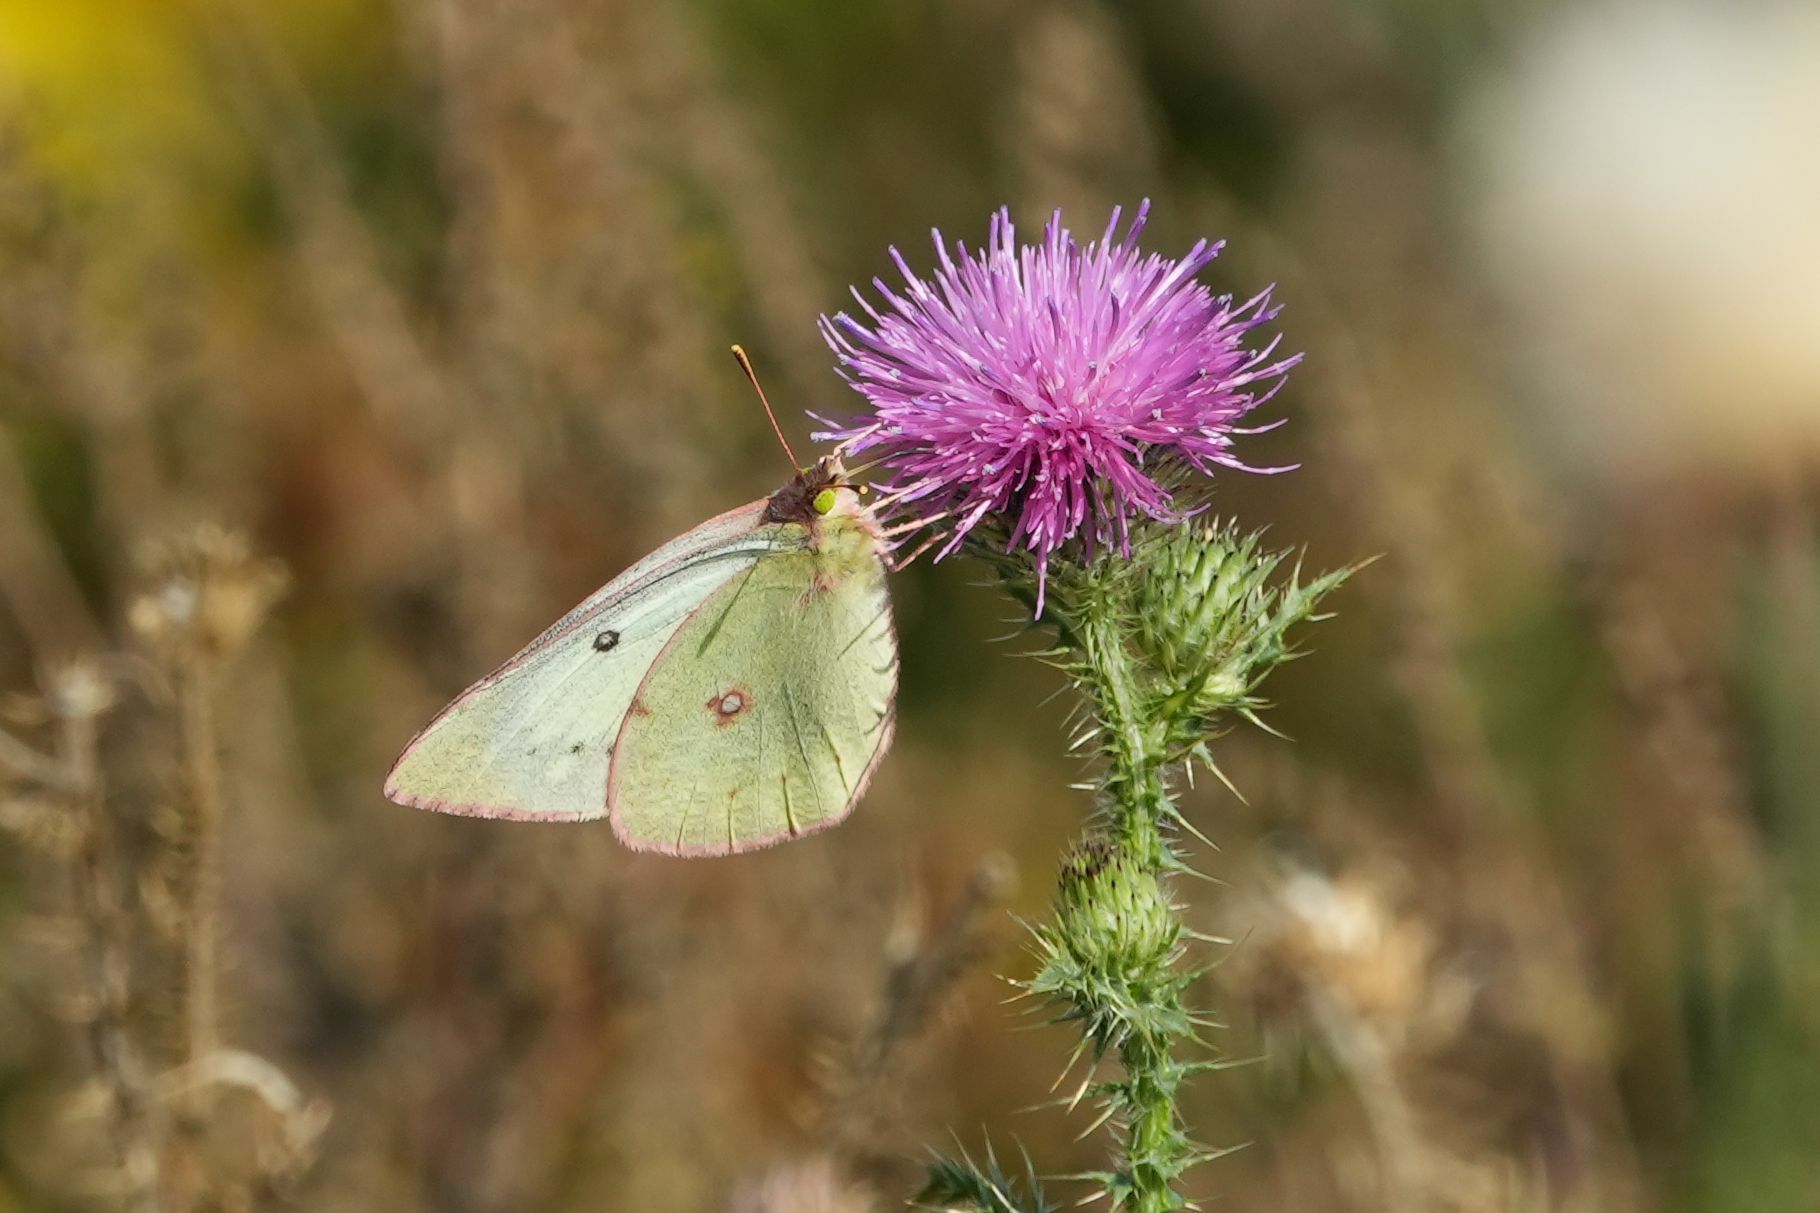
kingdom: Animalia
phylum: Arthropoda
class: Insecta
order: Lepidoptera
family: Pieridae
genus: Colias
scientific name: Colias philodice
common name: Clouded sulphur
